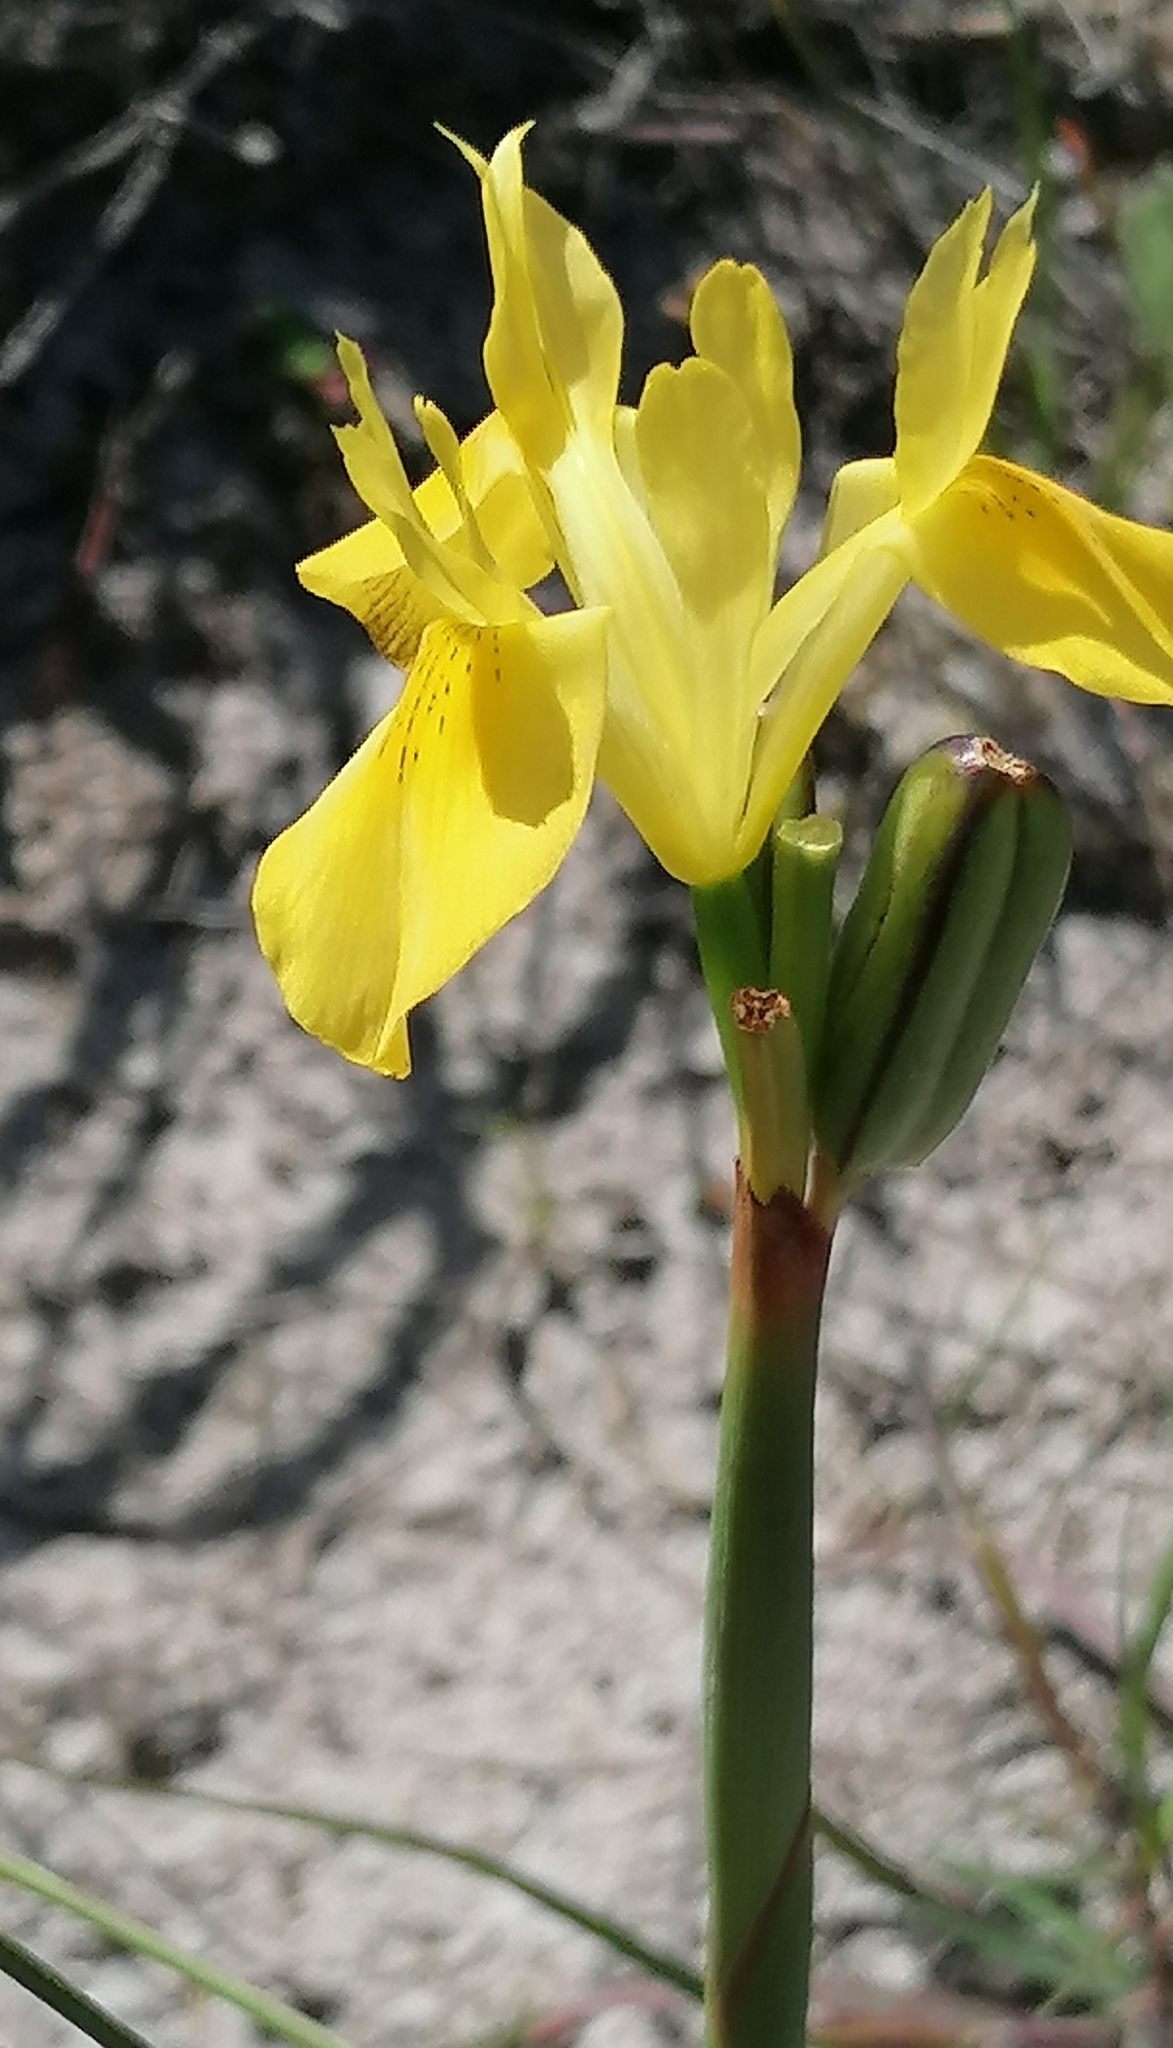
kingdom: Plantae
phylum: Tracheophyta
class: Liliopsida
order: Asparagales
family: Iridaceae
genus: Moraea
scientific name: Moraea neglecta
